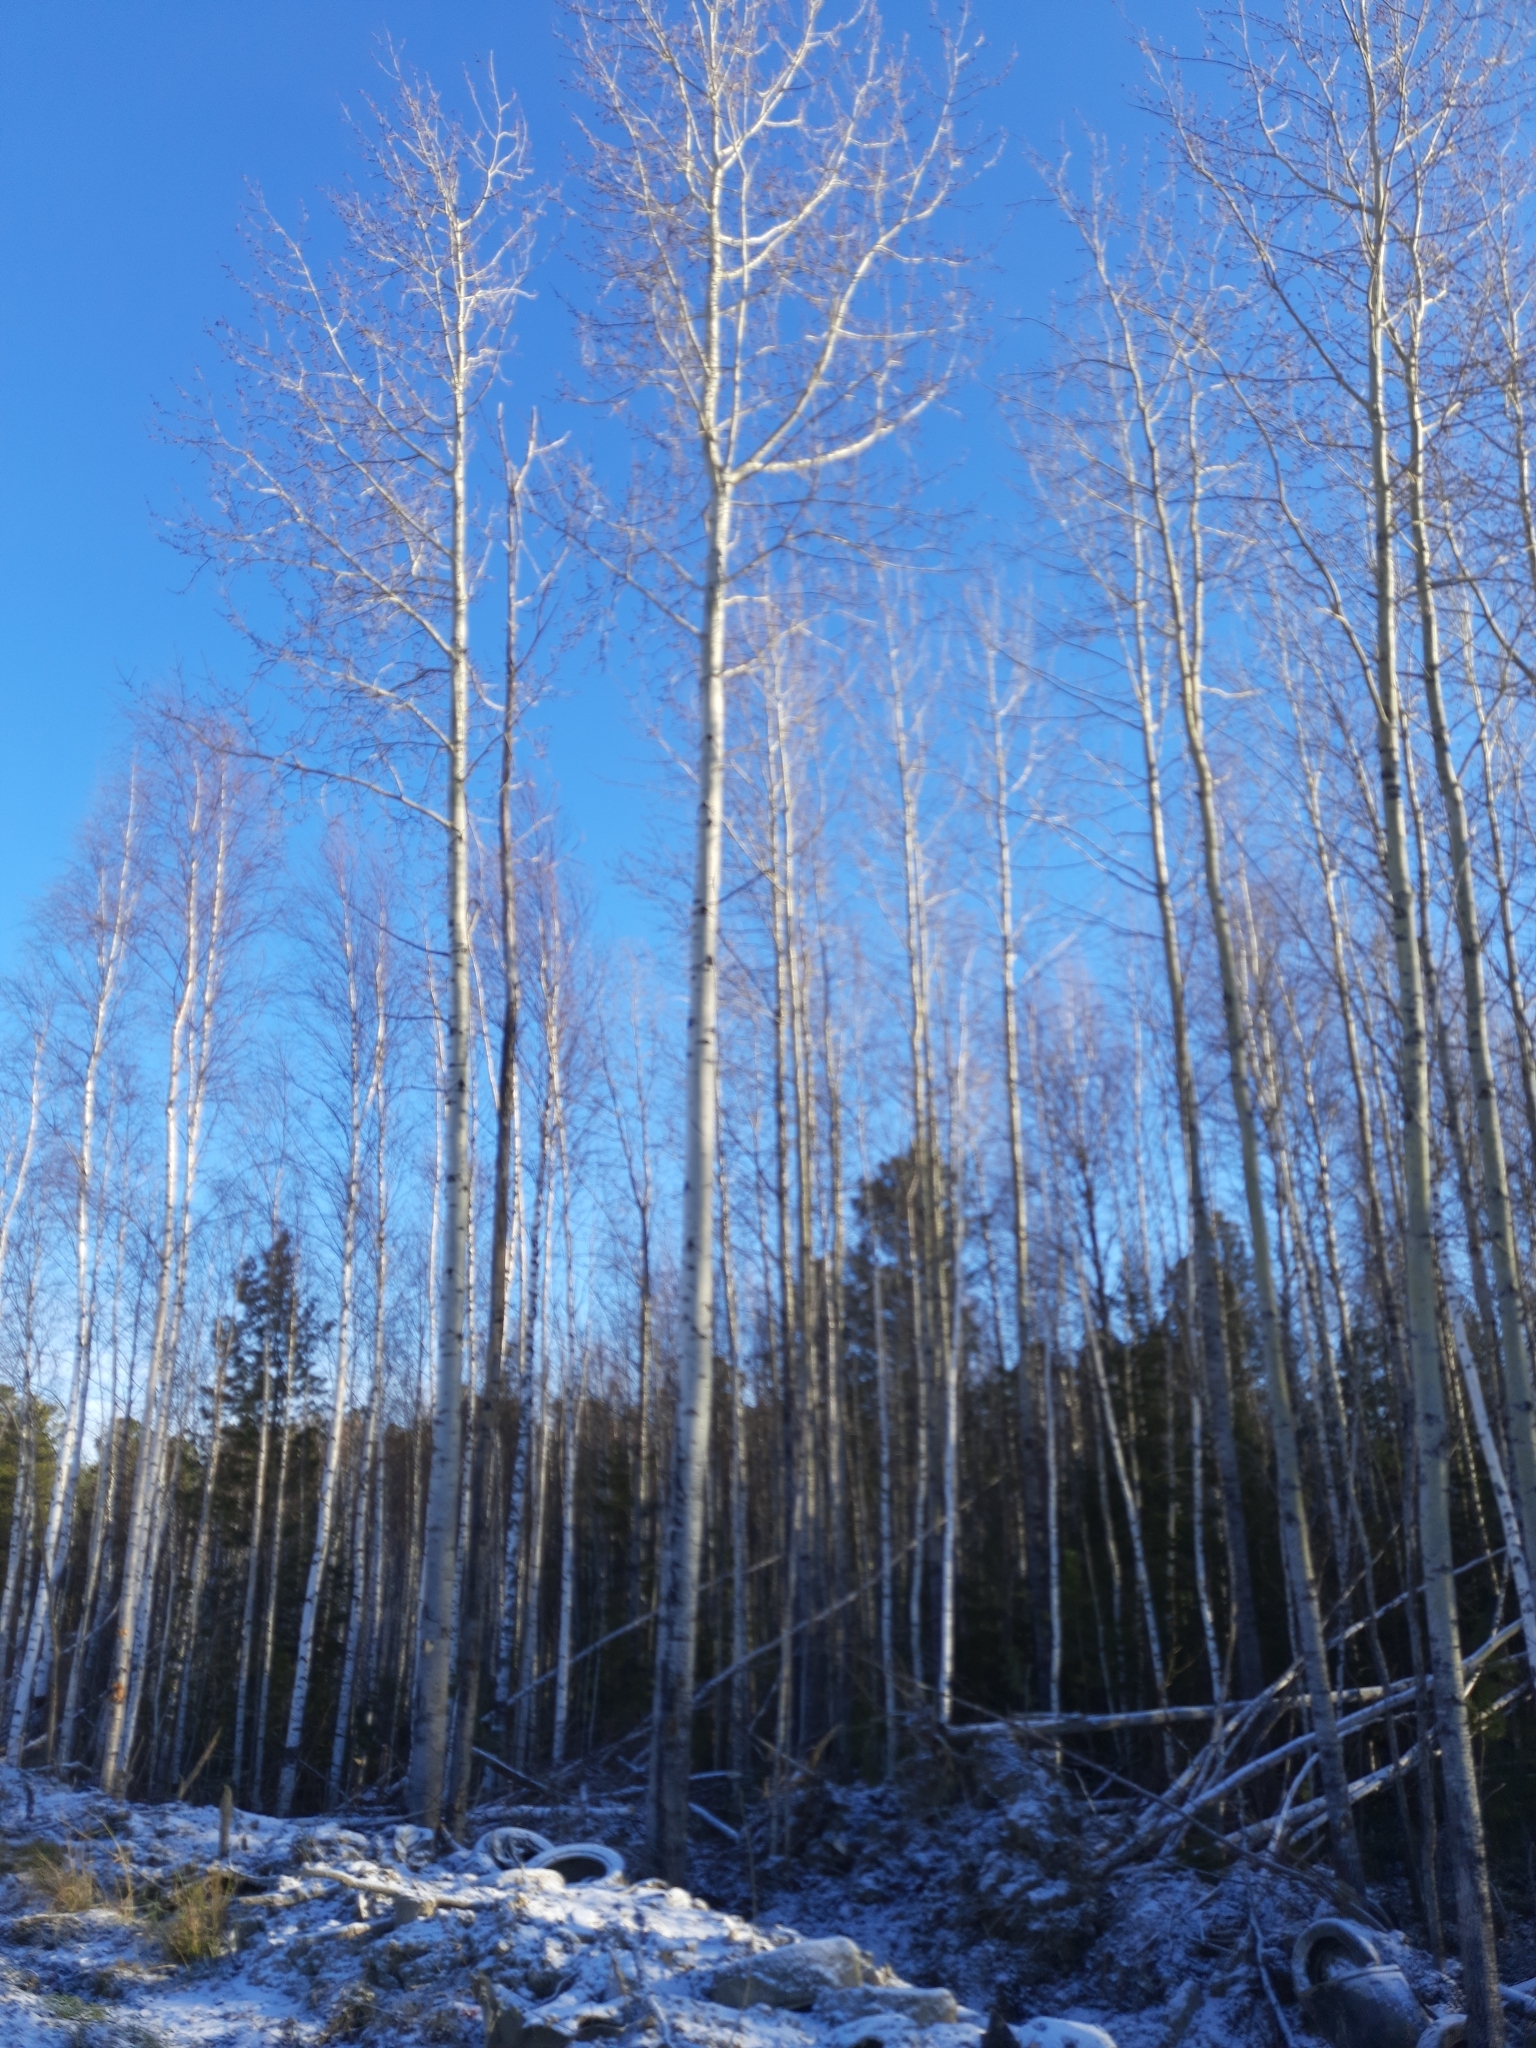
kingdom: Plantae
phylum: Tracheophyta
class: Magnoliopsida
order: Malpighiales
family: Salicaceae
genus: Populus
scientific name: Populus tremula
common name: European aspen
